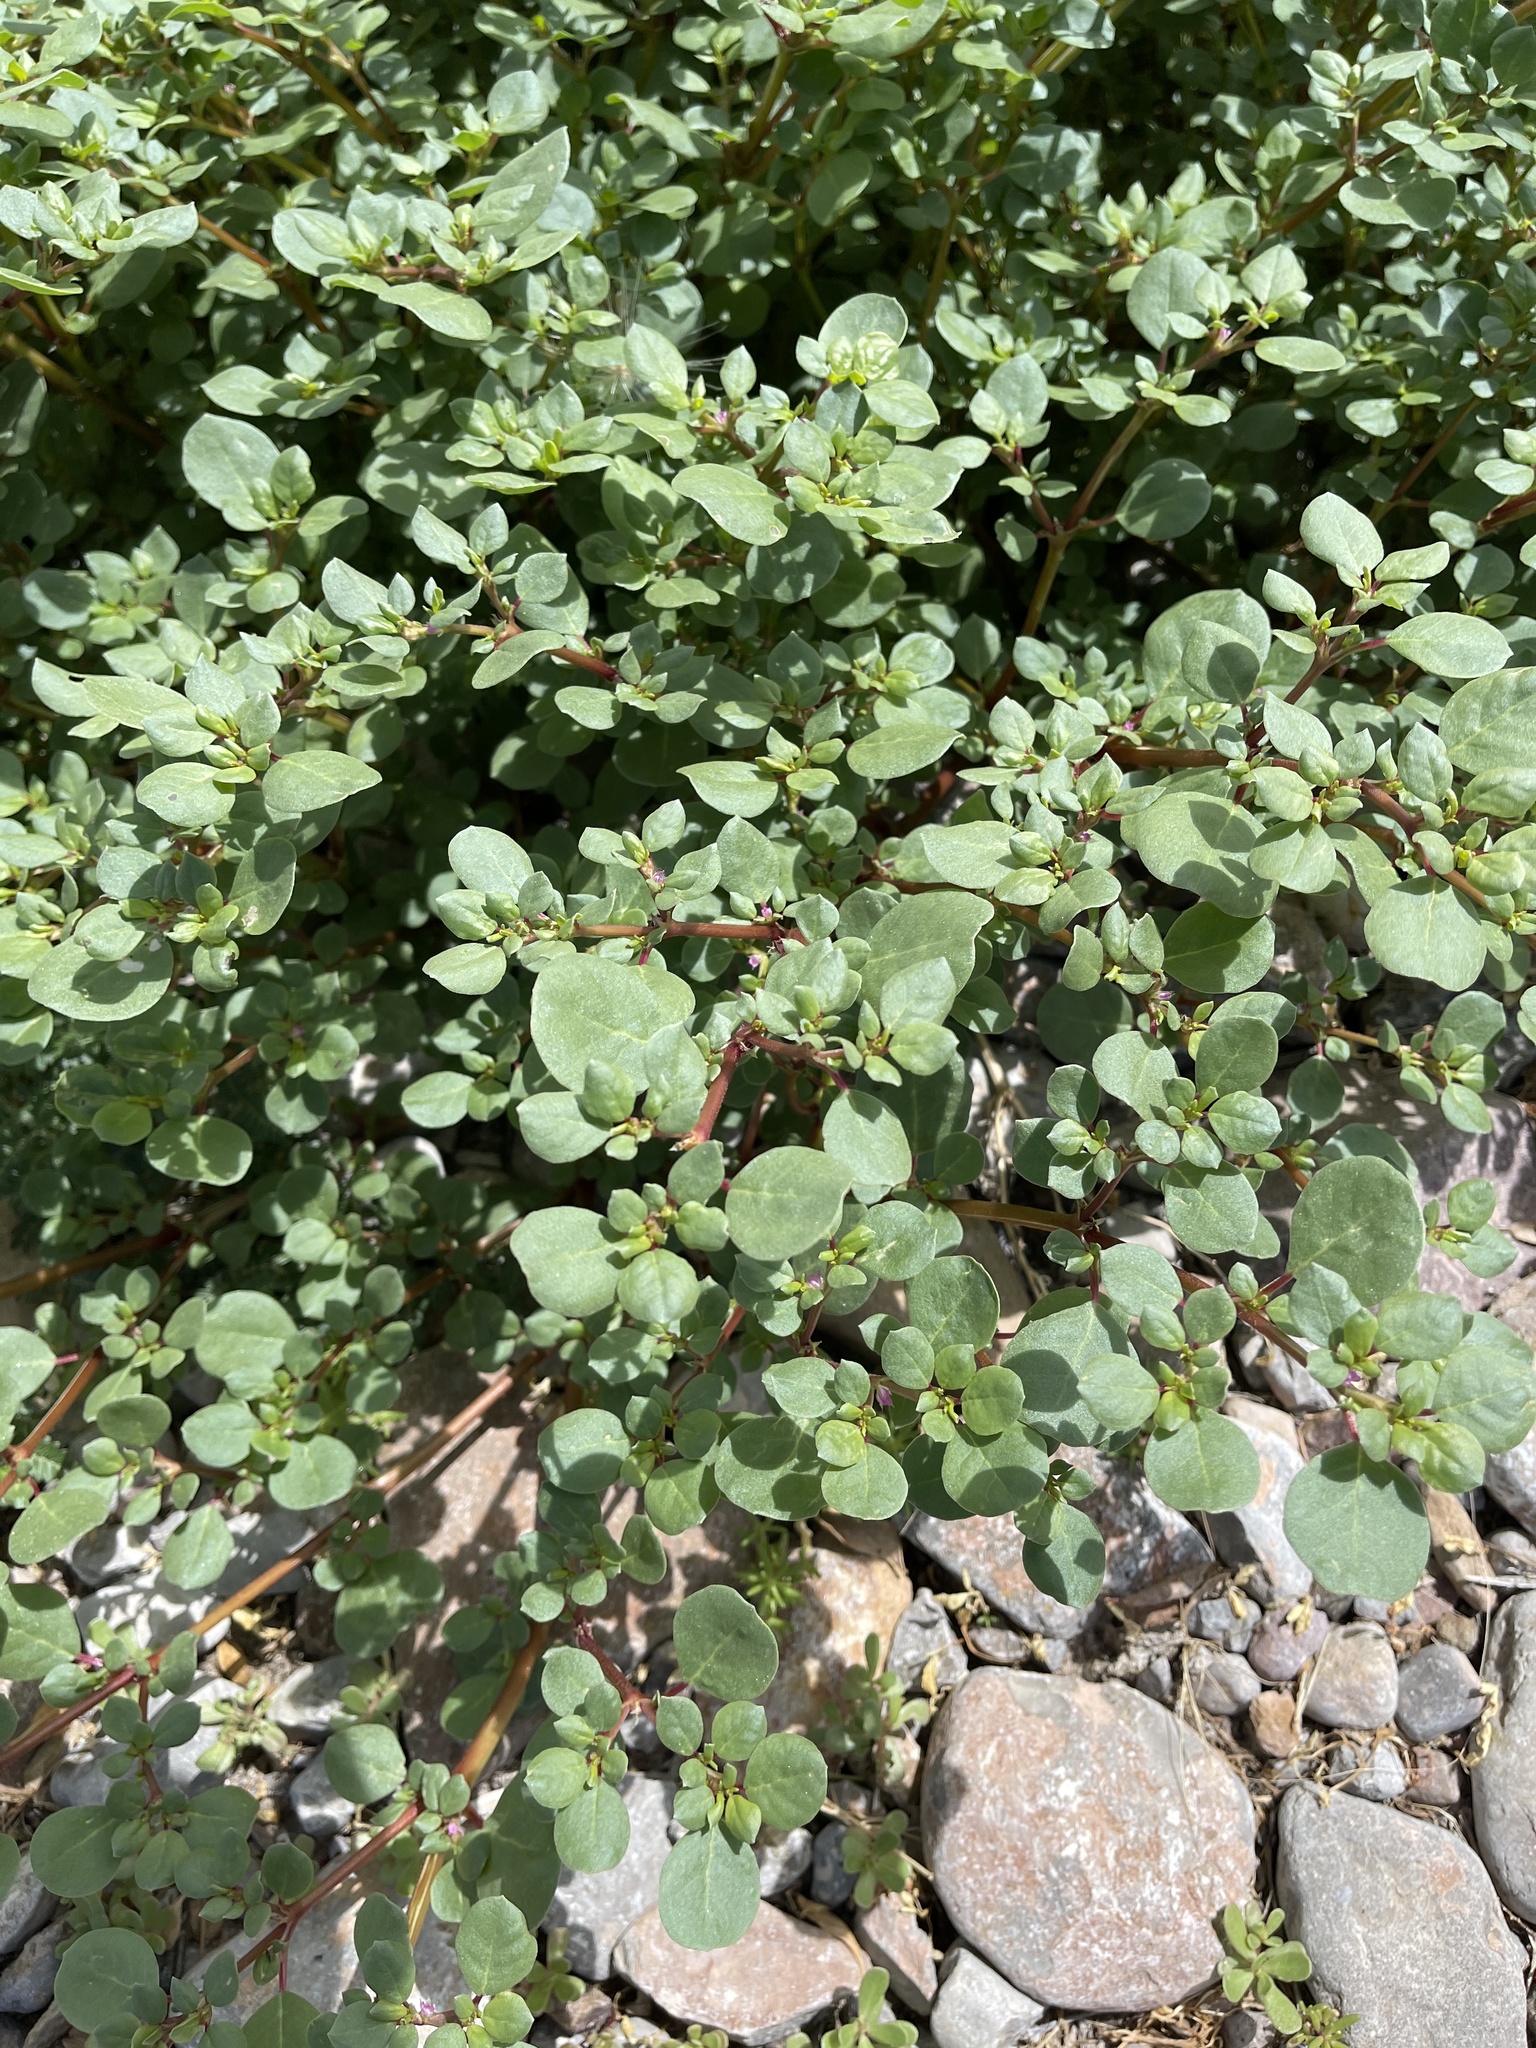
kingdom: Plantae
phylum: Tracheophyta
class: Magnoliopsida
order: Caryophyllales
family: Aizoaceae
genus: Trianthema
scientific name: Trianthema portulacastrum
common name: Desert horsepurslane
